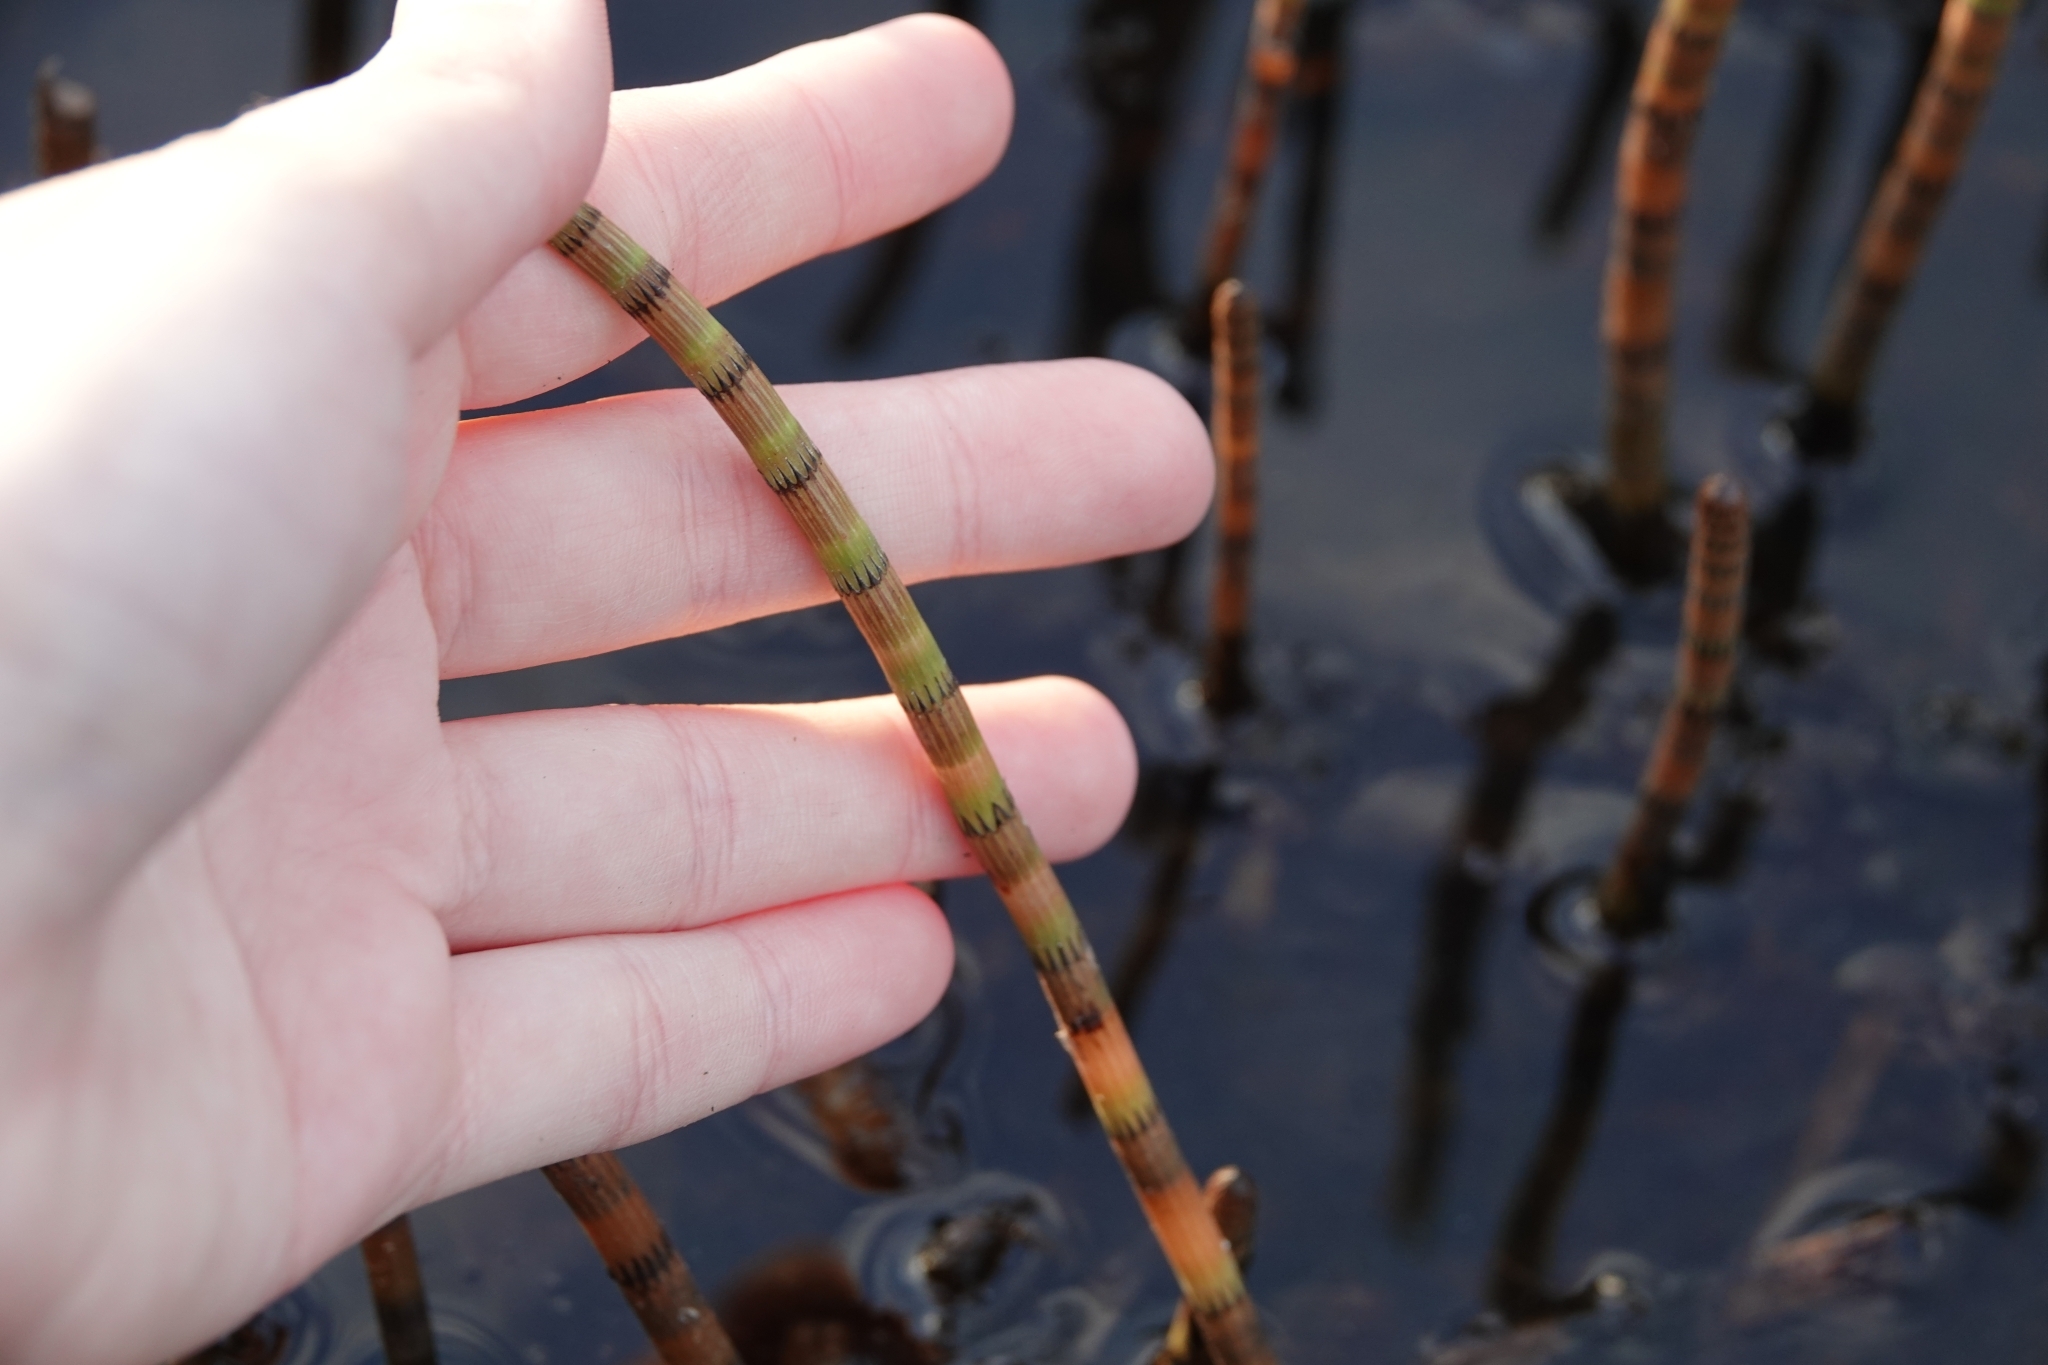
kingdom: Plantae
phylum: Tracheophyta
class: Polypodiopsida
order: Equisetales
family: Equisetaceae
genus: Equisetum
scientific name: Equisetum fluviatile
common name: Water horsetail
